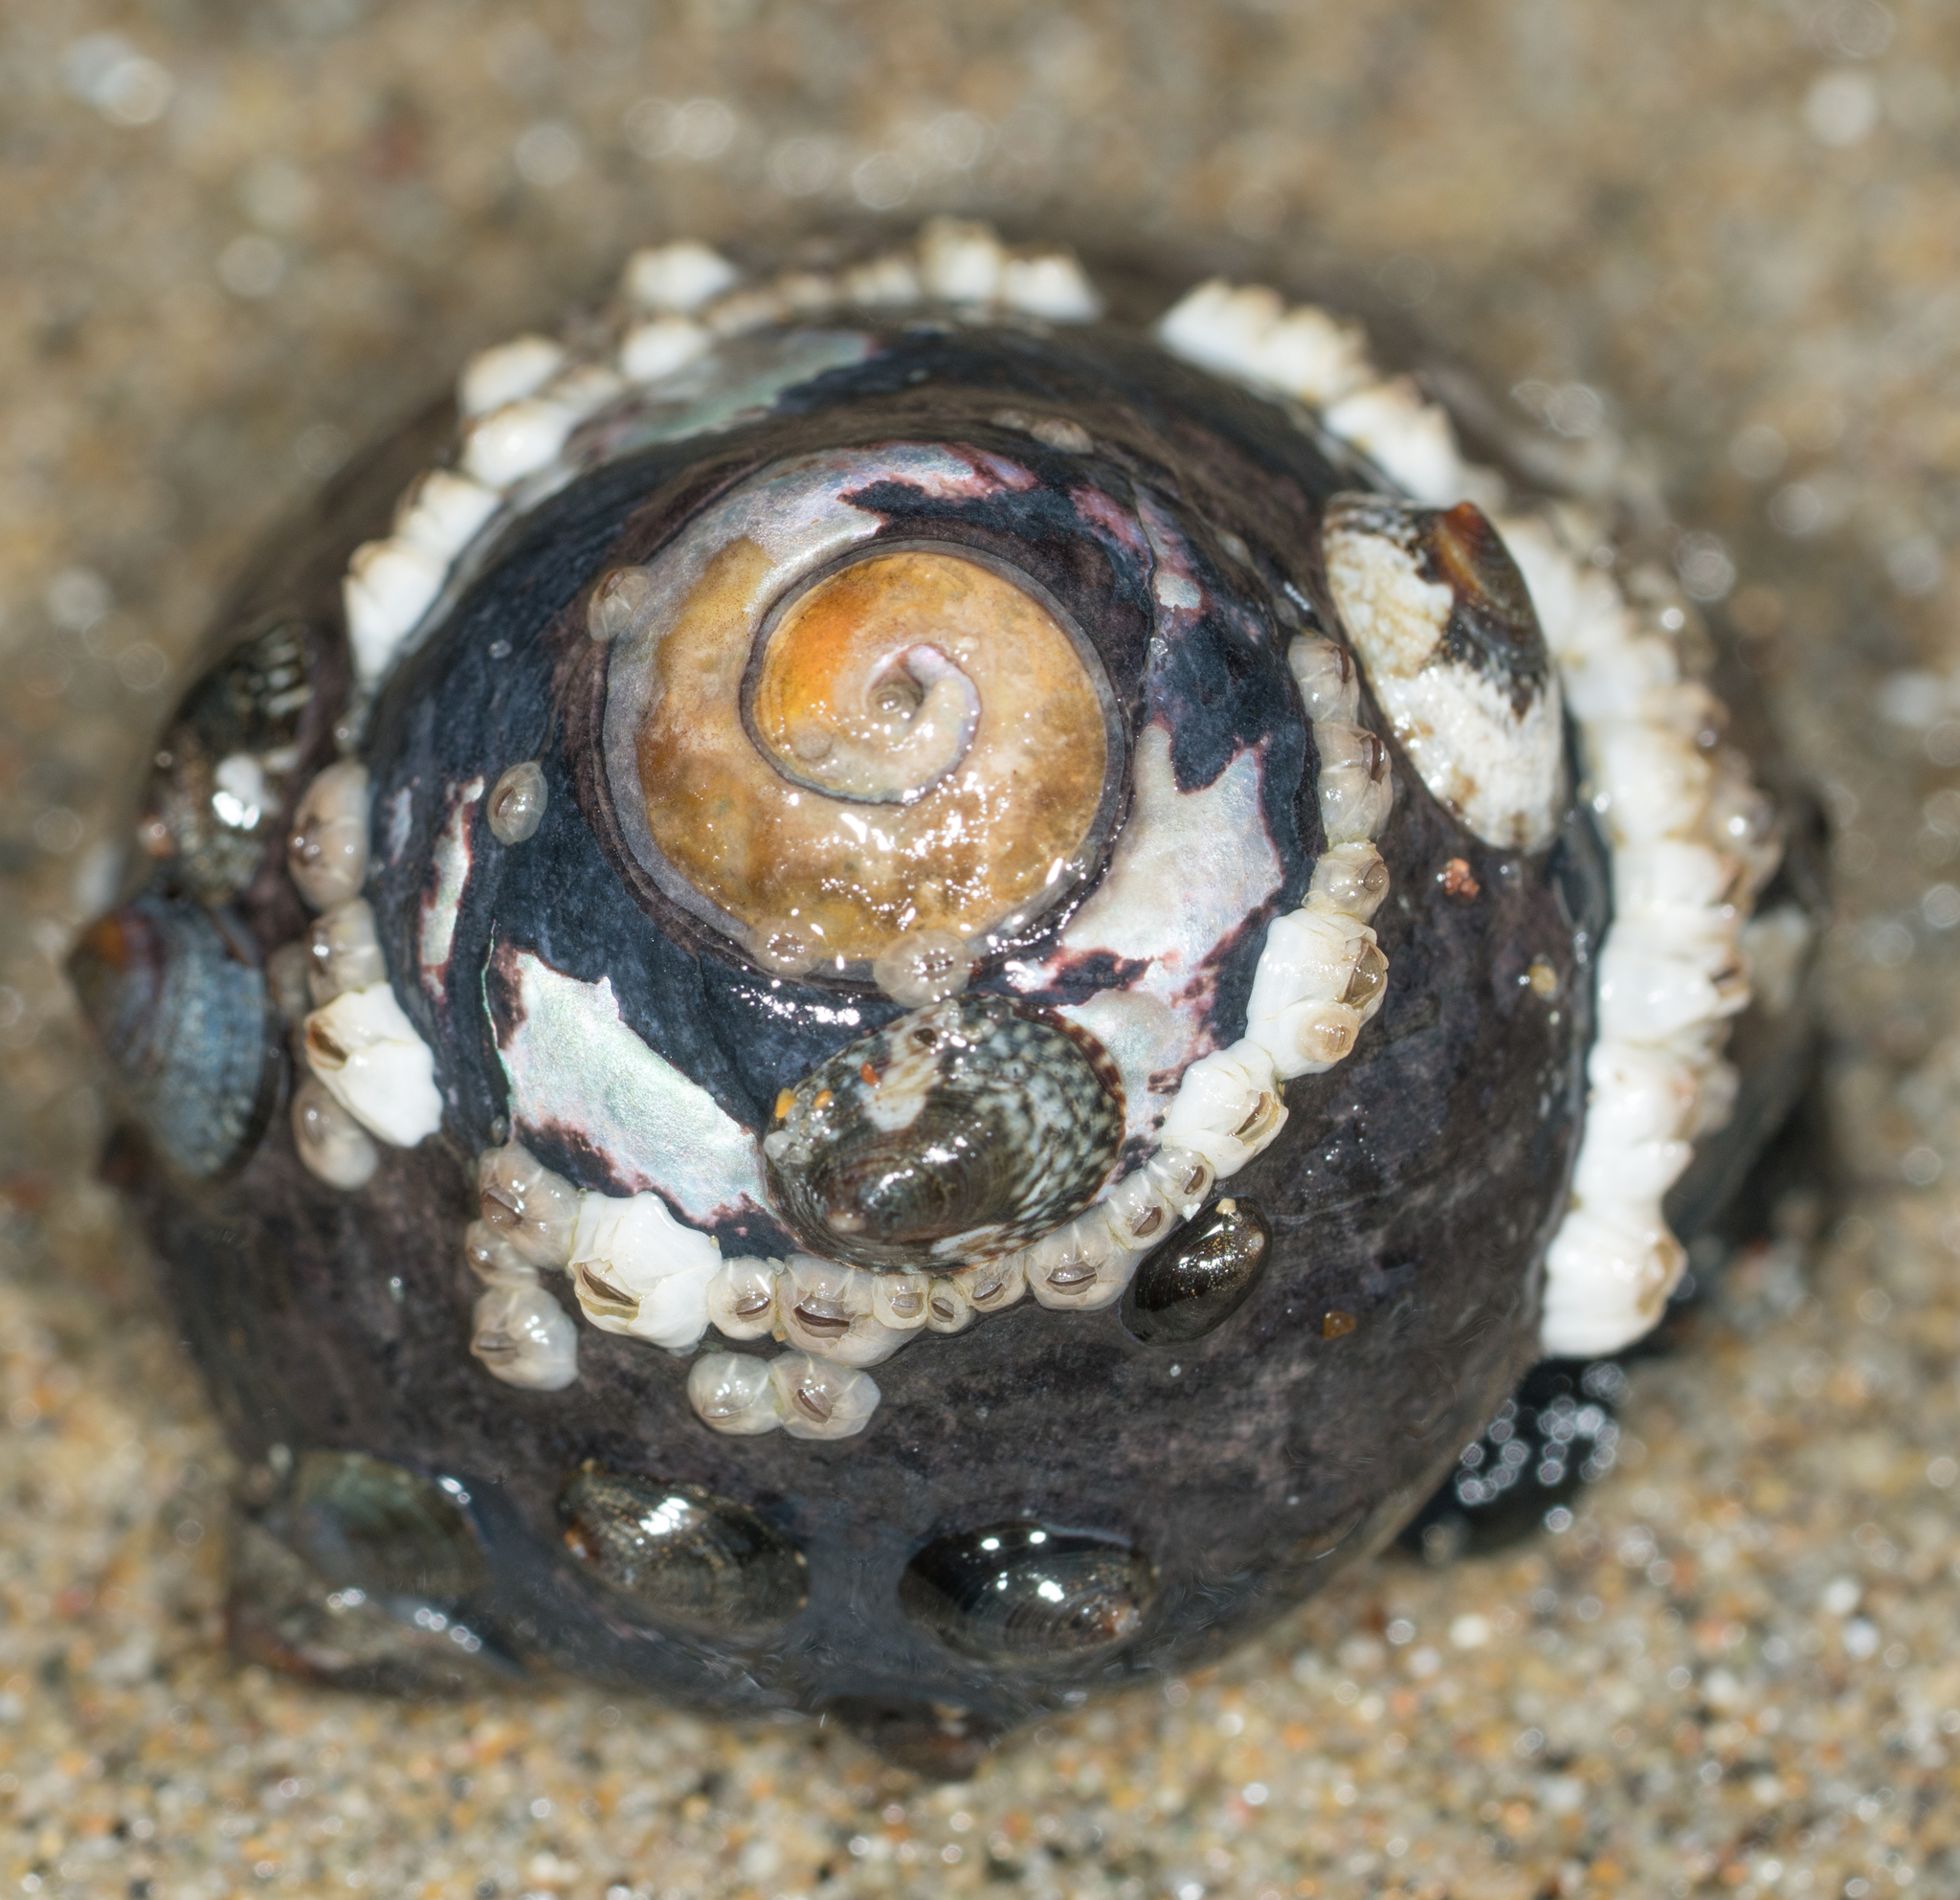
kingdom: Animalia
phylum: Mollusca
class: Gastropoda
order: Trochida
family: Tegulidae
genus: Tegula
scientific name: Tegula funebralis
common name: Black tegula
